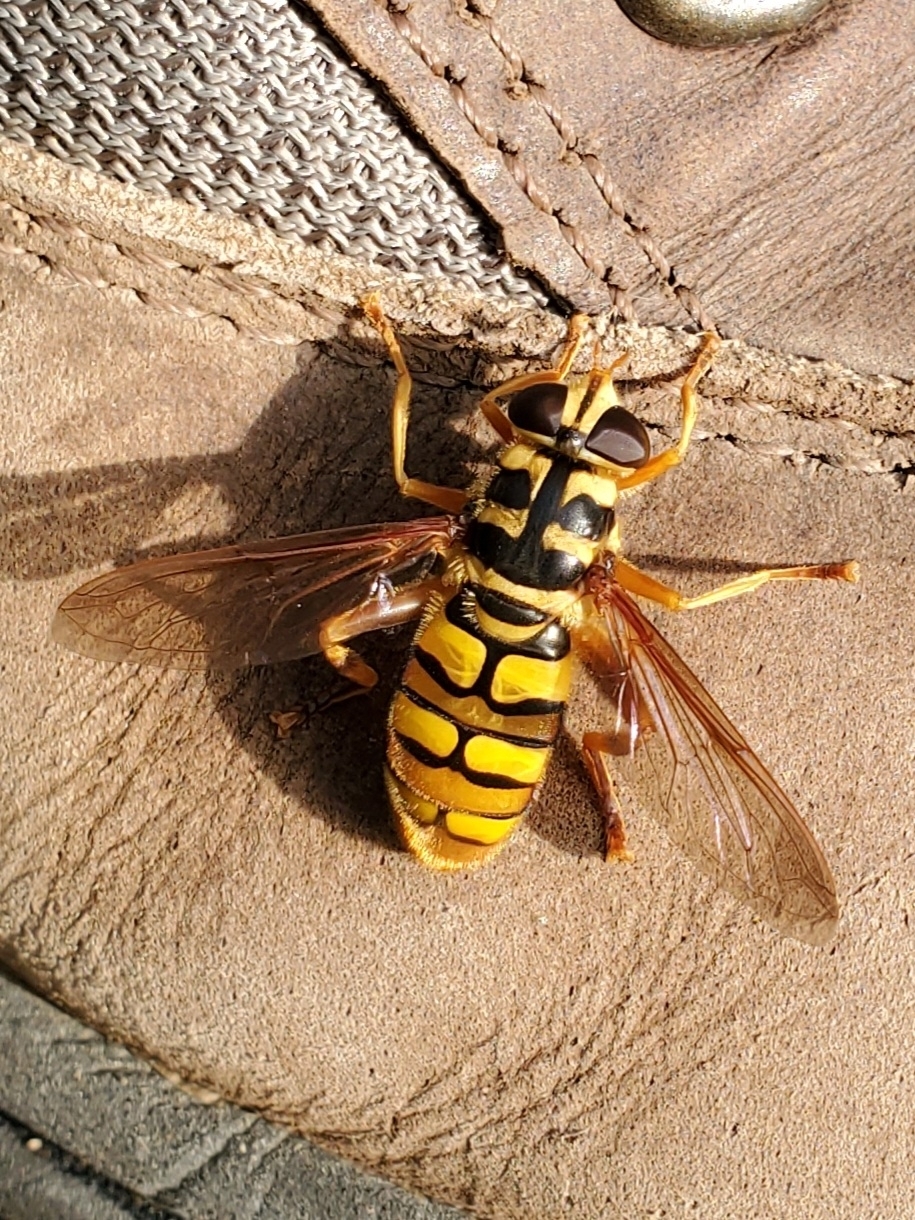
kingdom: Animalia
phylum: Arthropoda
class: Insecta
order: Diptera
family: Syrphidae
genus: Milesia
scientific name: Milesia virginiensis
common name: Virginia giant
